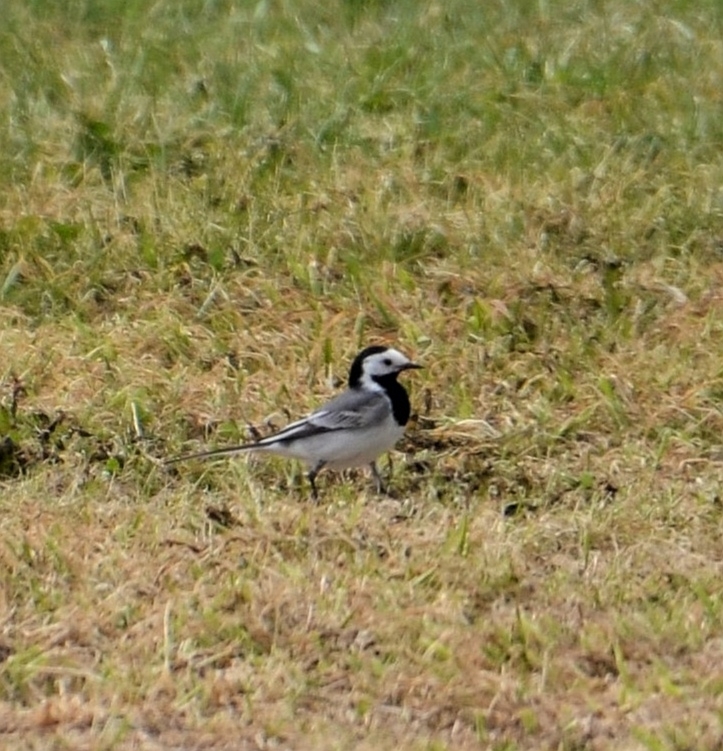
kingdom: Animalia
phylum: Chordata
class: Aves
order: Passeriformes
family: Motacillidae
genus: Motacilla
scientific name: Motacilla alba
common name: White wagtail
